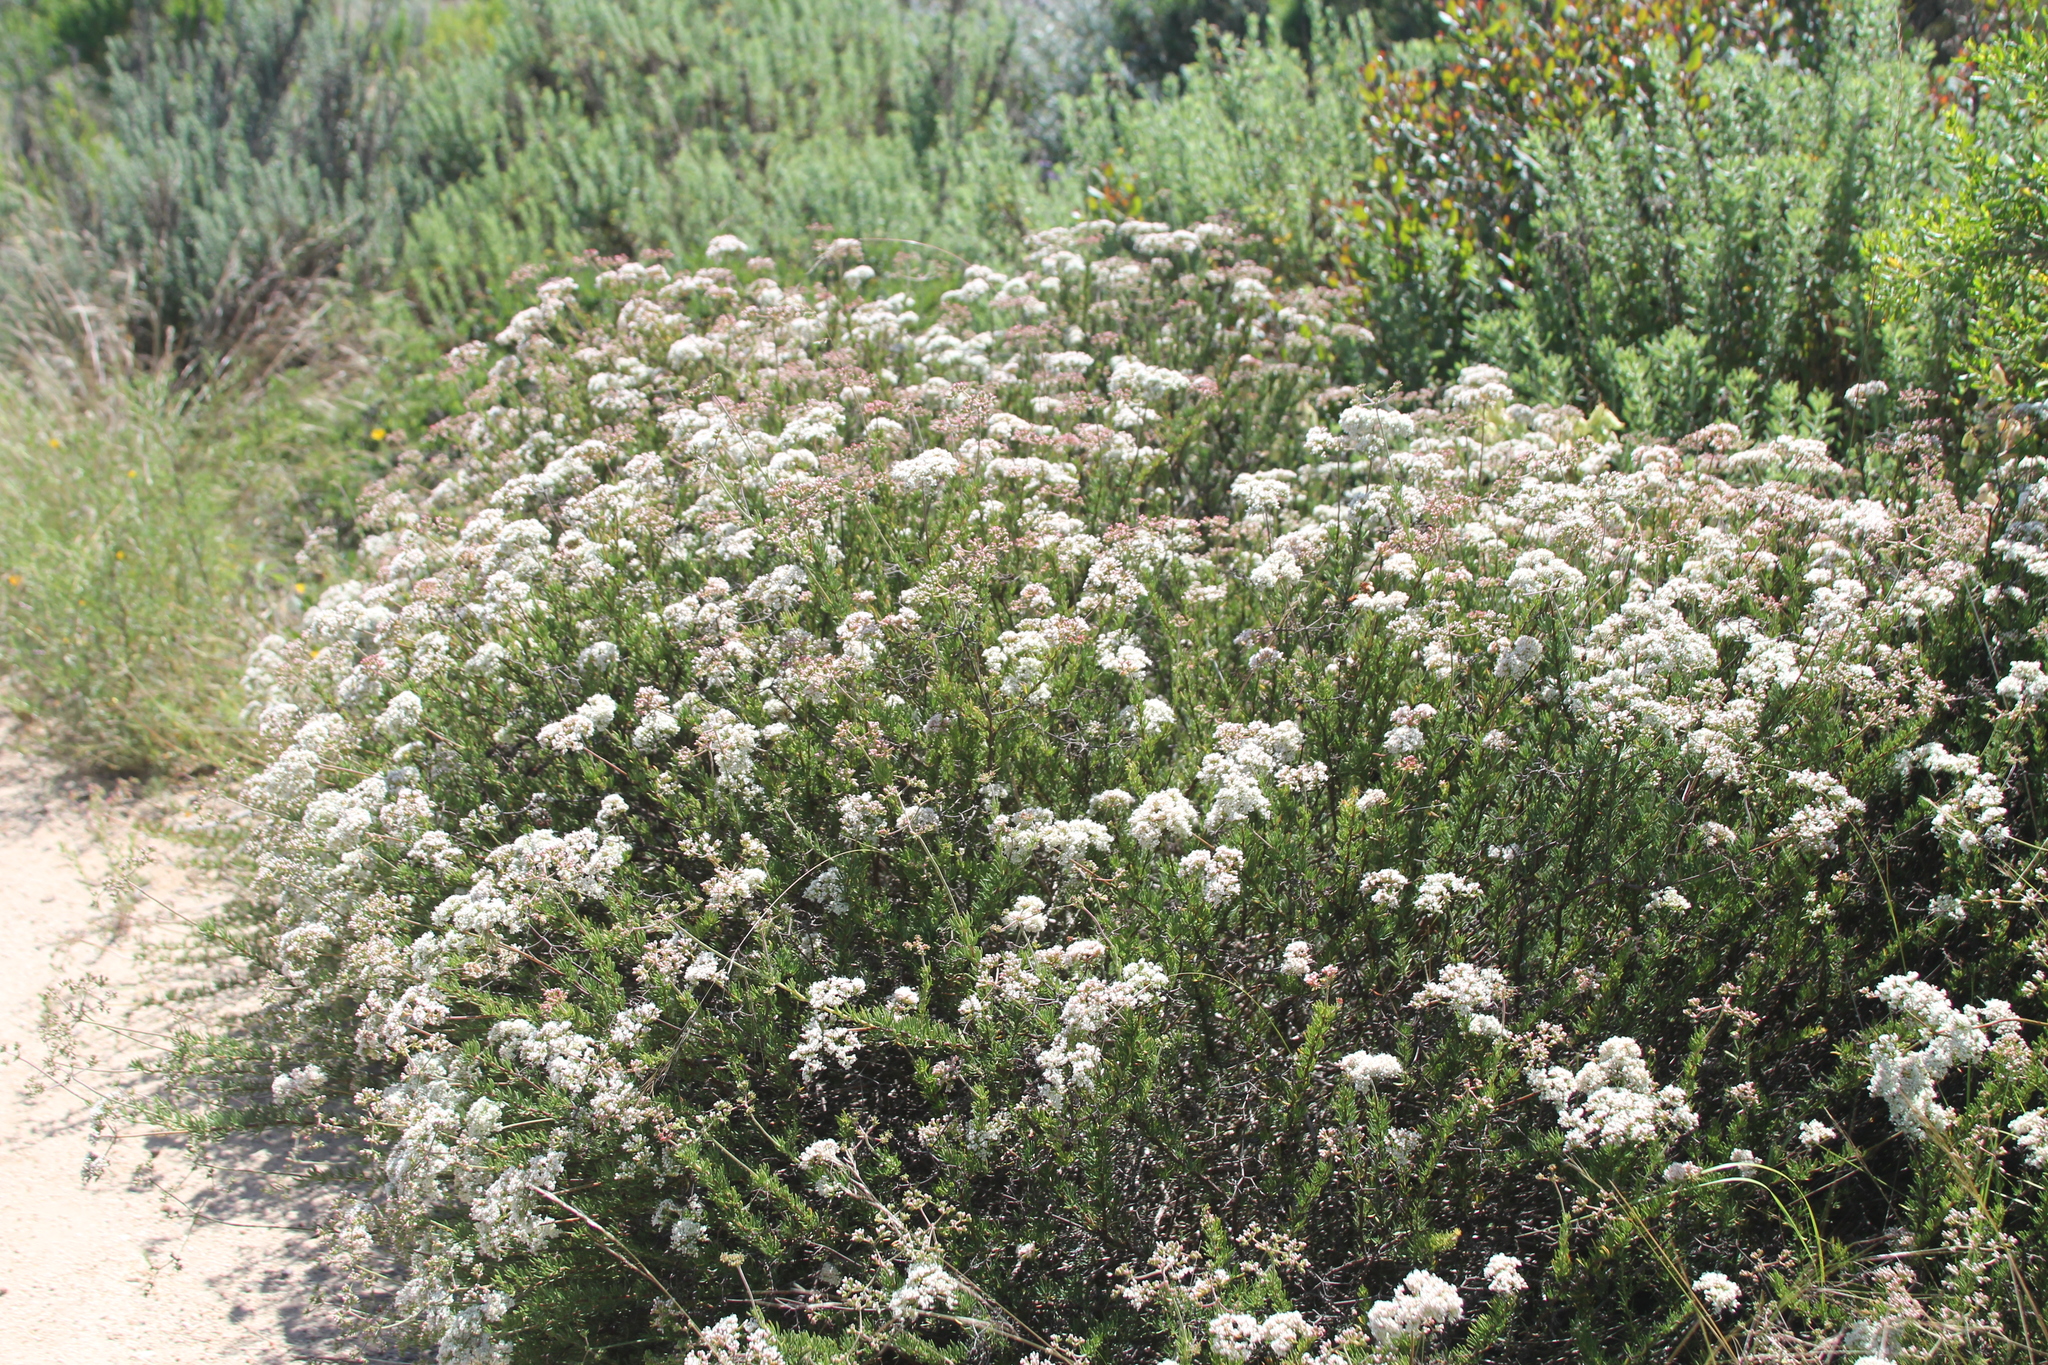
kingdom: Plantae
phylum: Tracheophyta
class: Magnoliopsida
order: Caryophyllales
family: Polygonaceae
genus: Eriogonum
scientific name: Eriogonum fasciculatum
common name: California wild buckwheat
